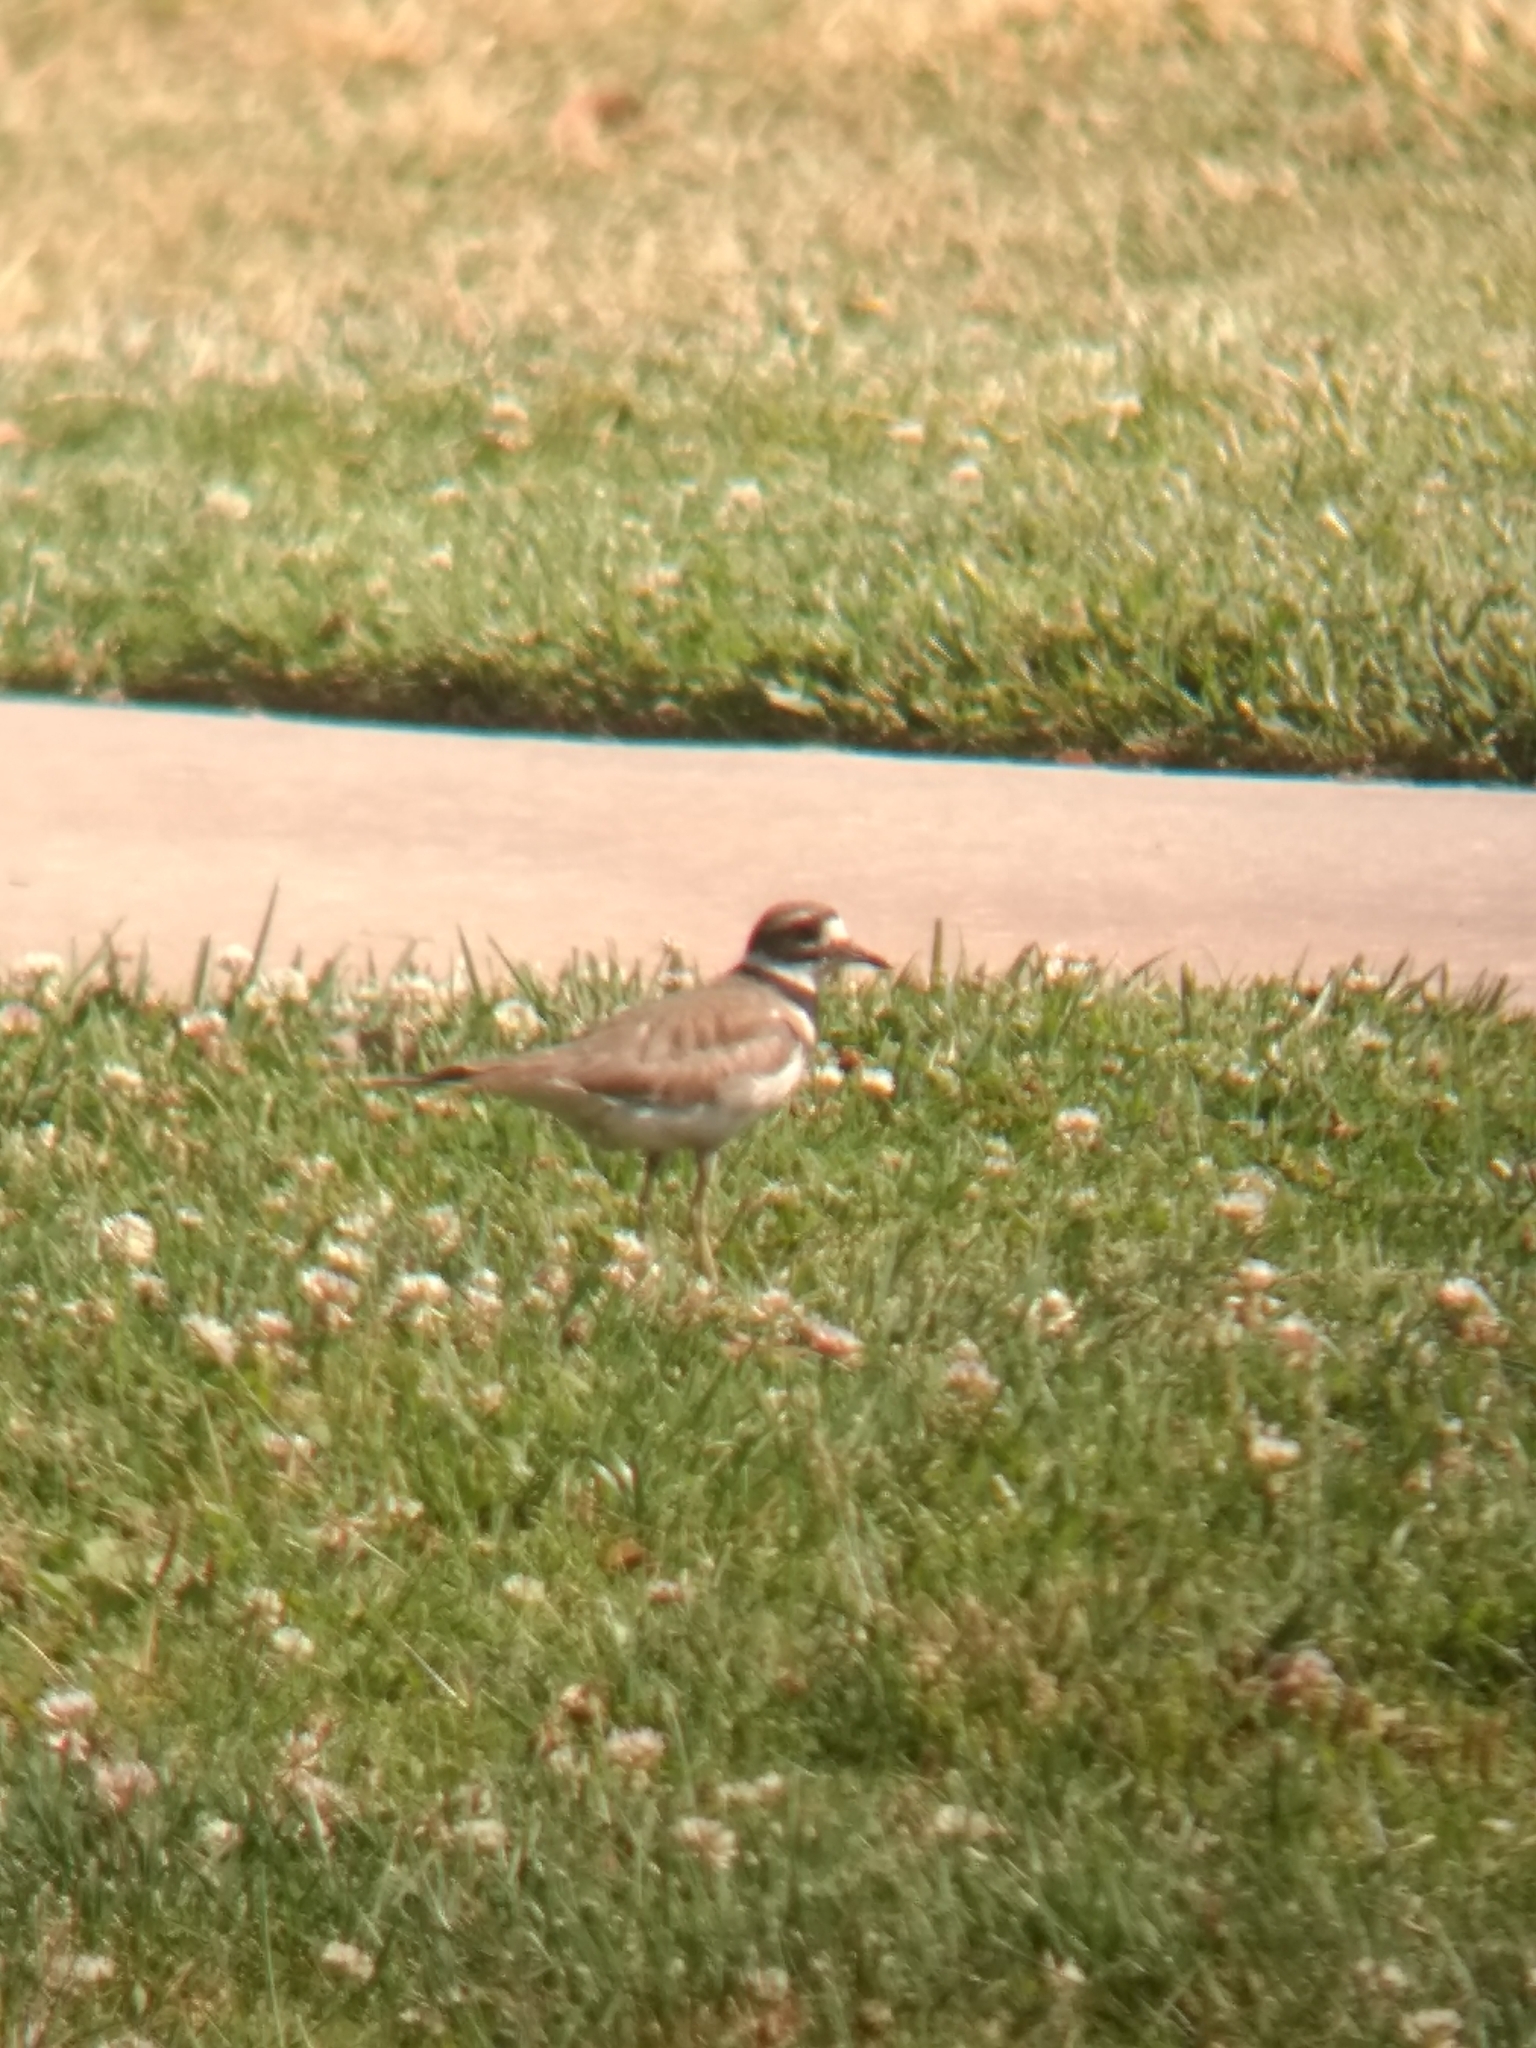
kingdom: Animalia
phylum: Chordata
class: Aves
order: Charadriiformes
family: Charadriidae
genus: Charadrius
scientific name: Charadrius vociferus
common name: Killdeer
